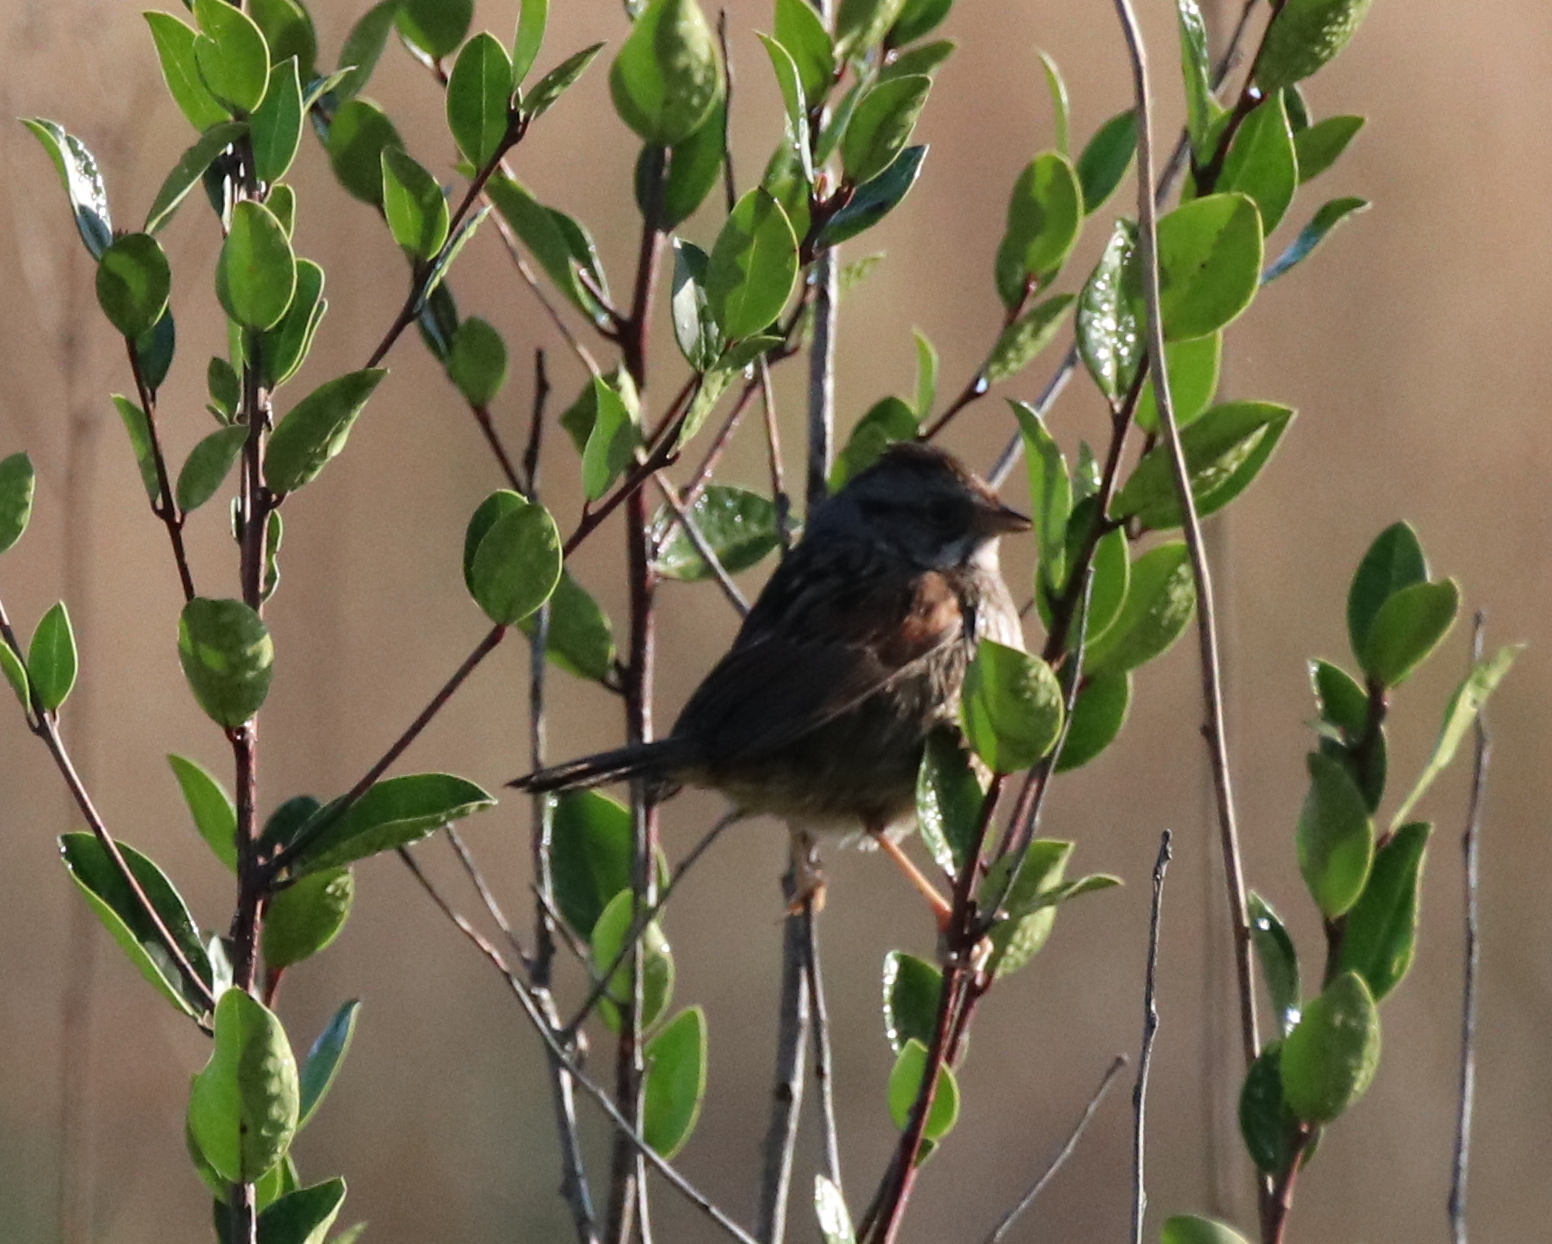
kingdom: Animalia
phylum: Chordata
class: Aves
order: Passeriformes
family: Passerellidae
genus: Melospiza
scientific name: Melospiza georgiana
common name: Swamp sparrow
